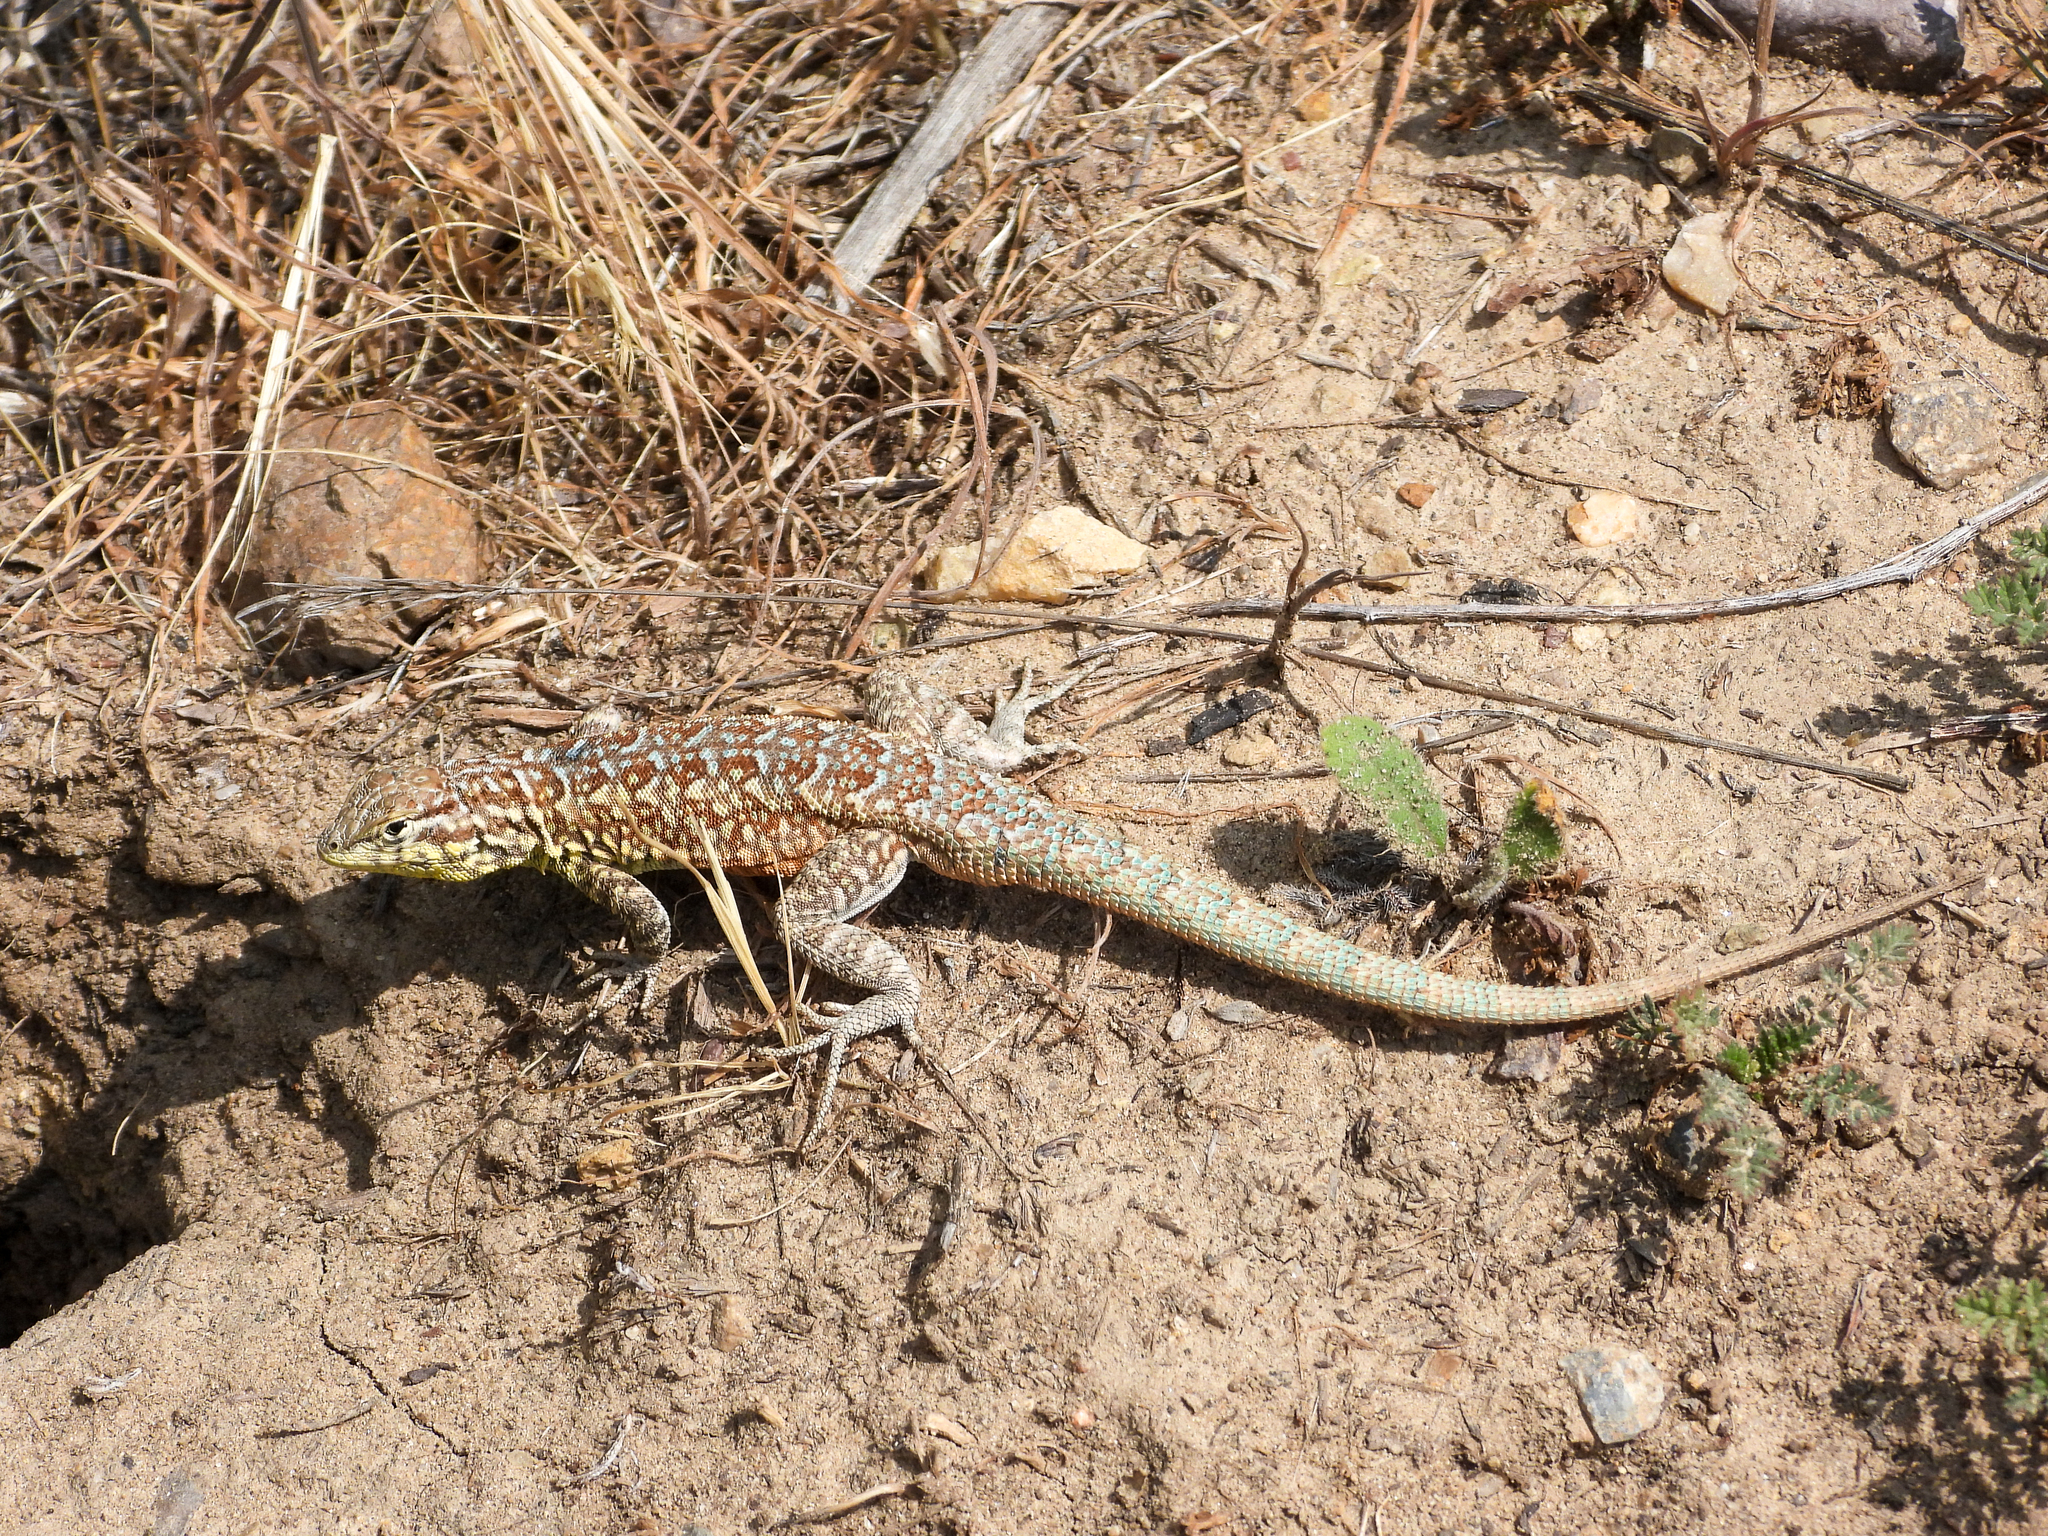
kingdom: Animalia
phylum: Chordata
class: Squamata
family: Phrynosomatidae
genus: Uta
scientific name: Uta stansburiana
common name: Side-blotched lizard
